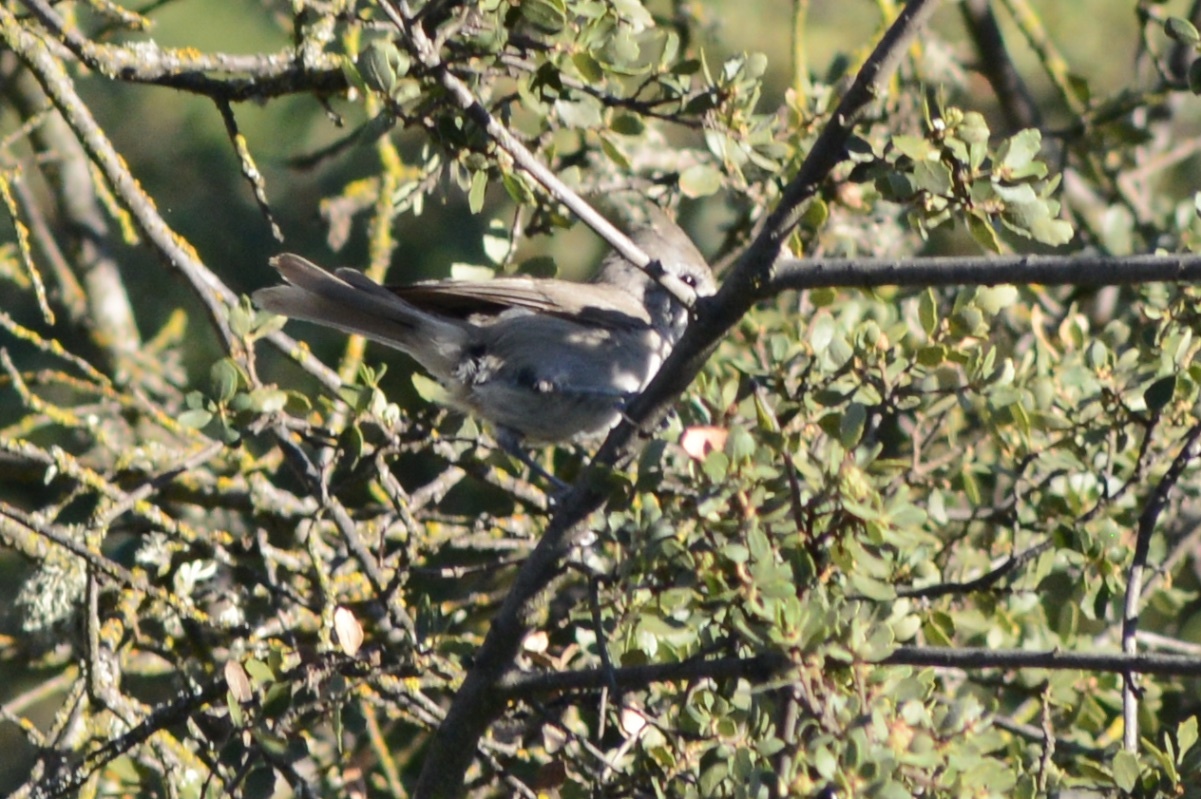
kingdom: Animalia
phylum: Chordata
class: Aves
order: Passeriformes
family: Paridae
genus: Baeolophus
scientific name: Baeolophus inornatus
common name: Oak titmouse
